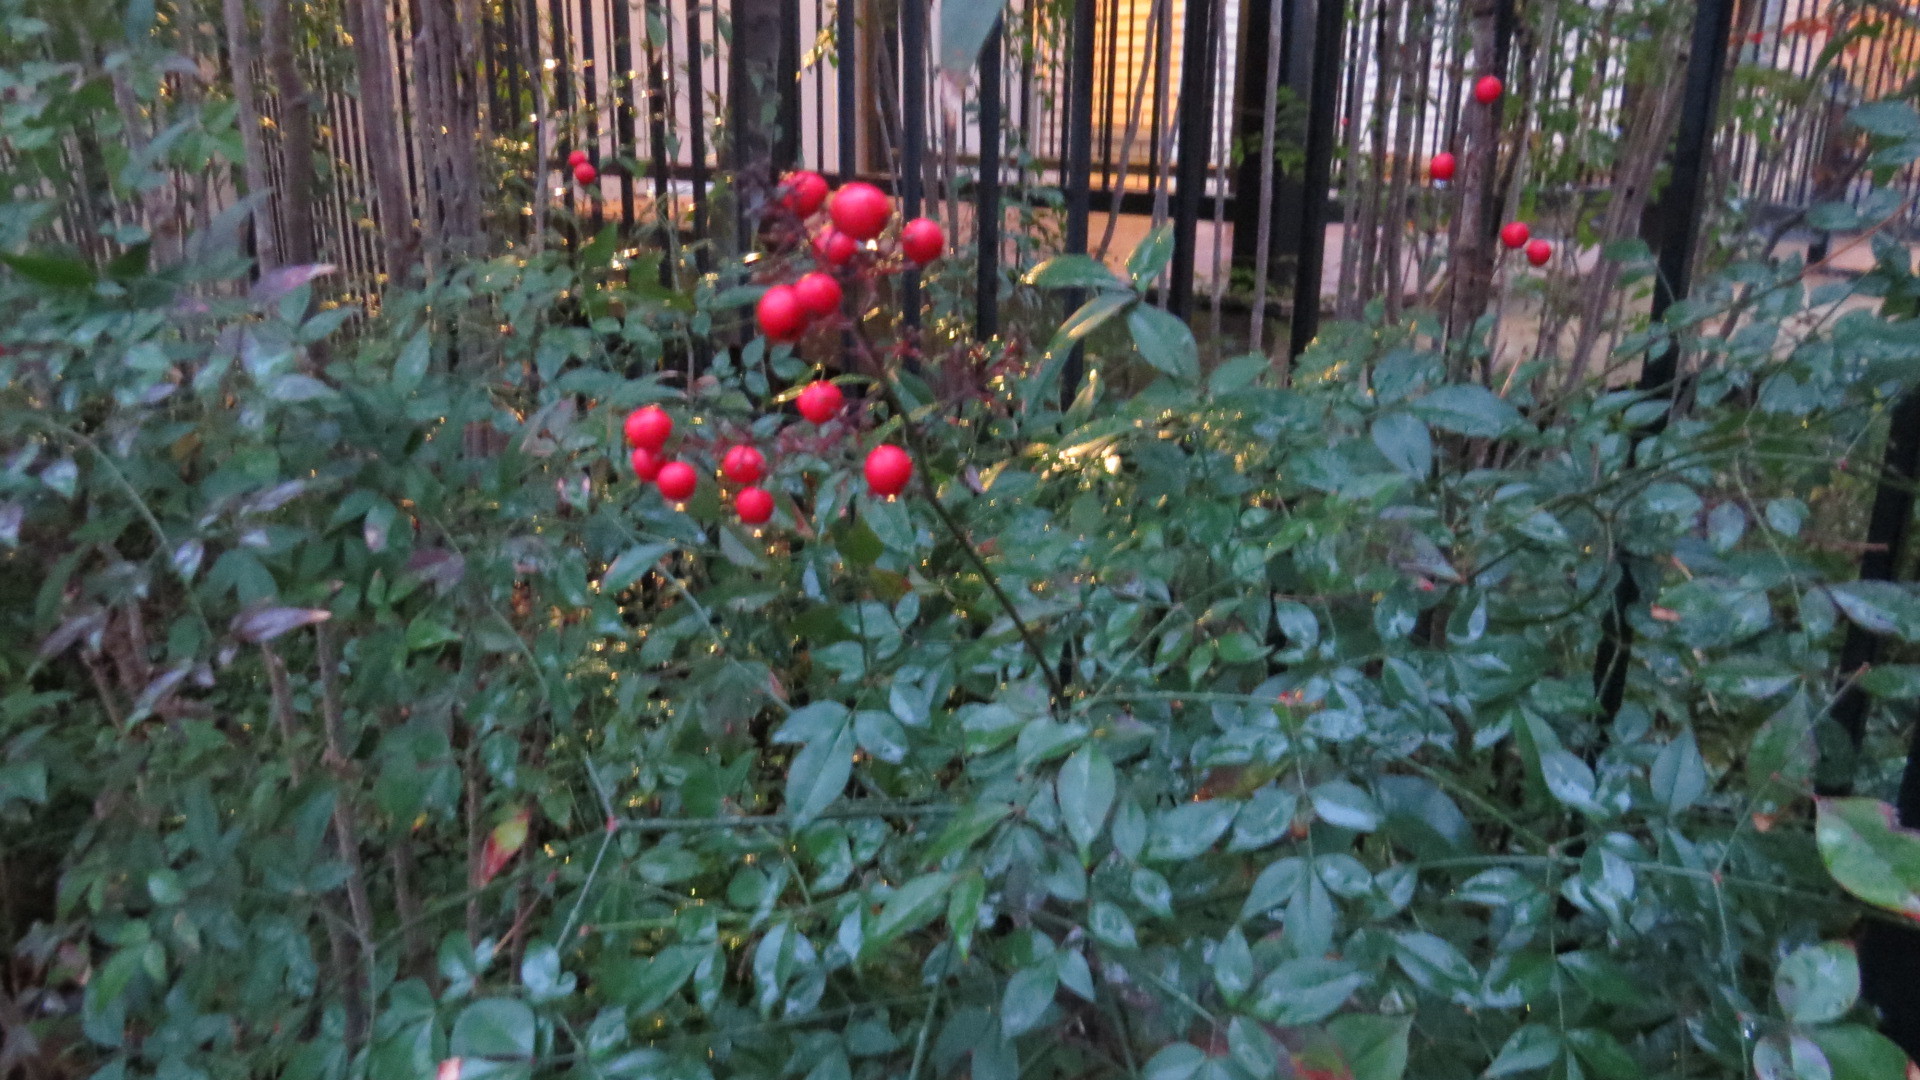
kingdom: Plantae
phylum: Tracheophyta
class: Magnoliopsida
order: Ranunculales
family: Berberidaceae
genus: Nandina
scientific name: Nandina domestica
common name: Sacred bamboo
